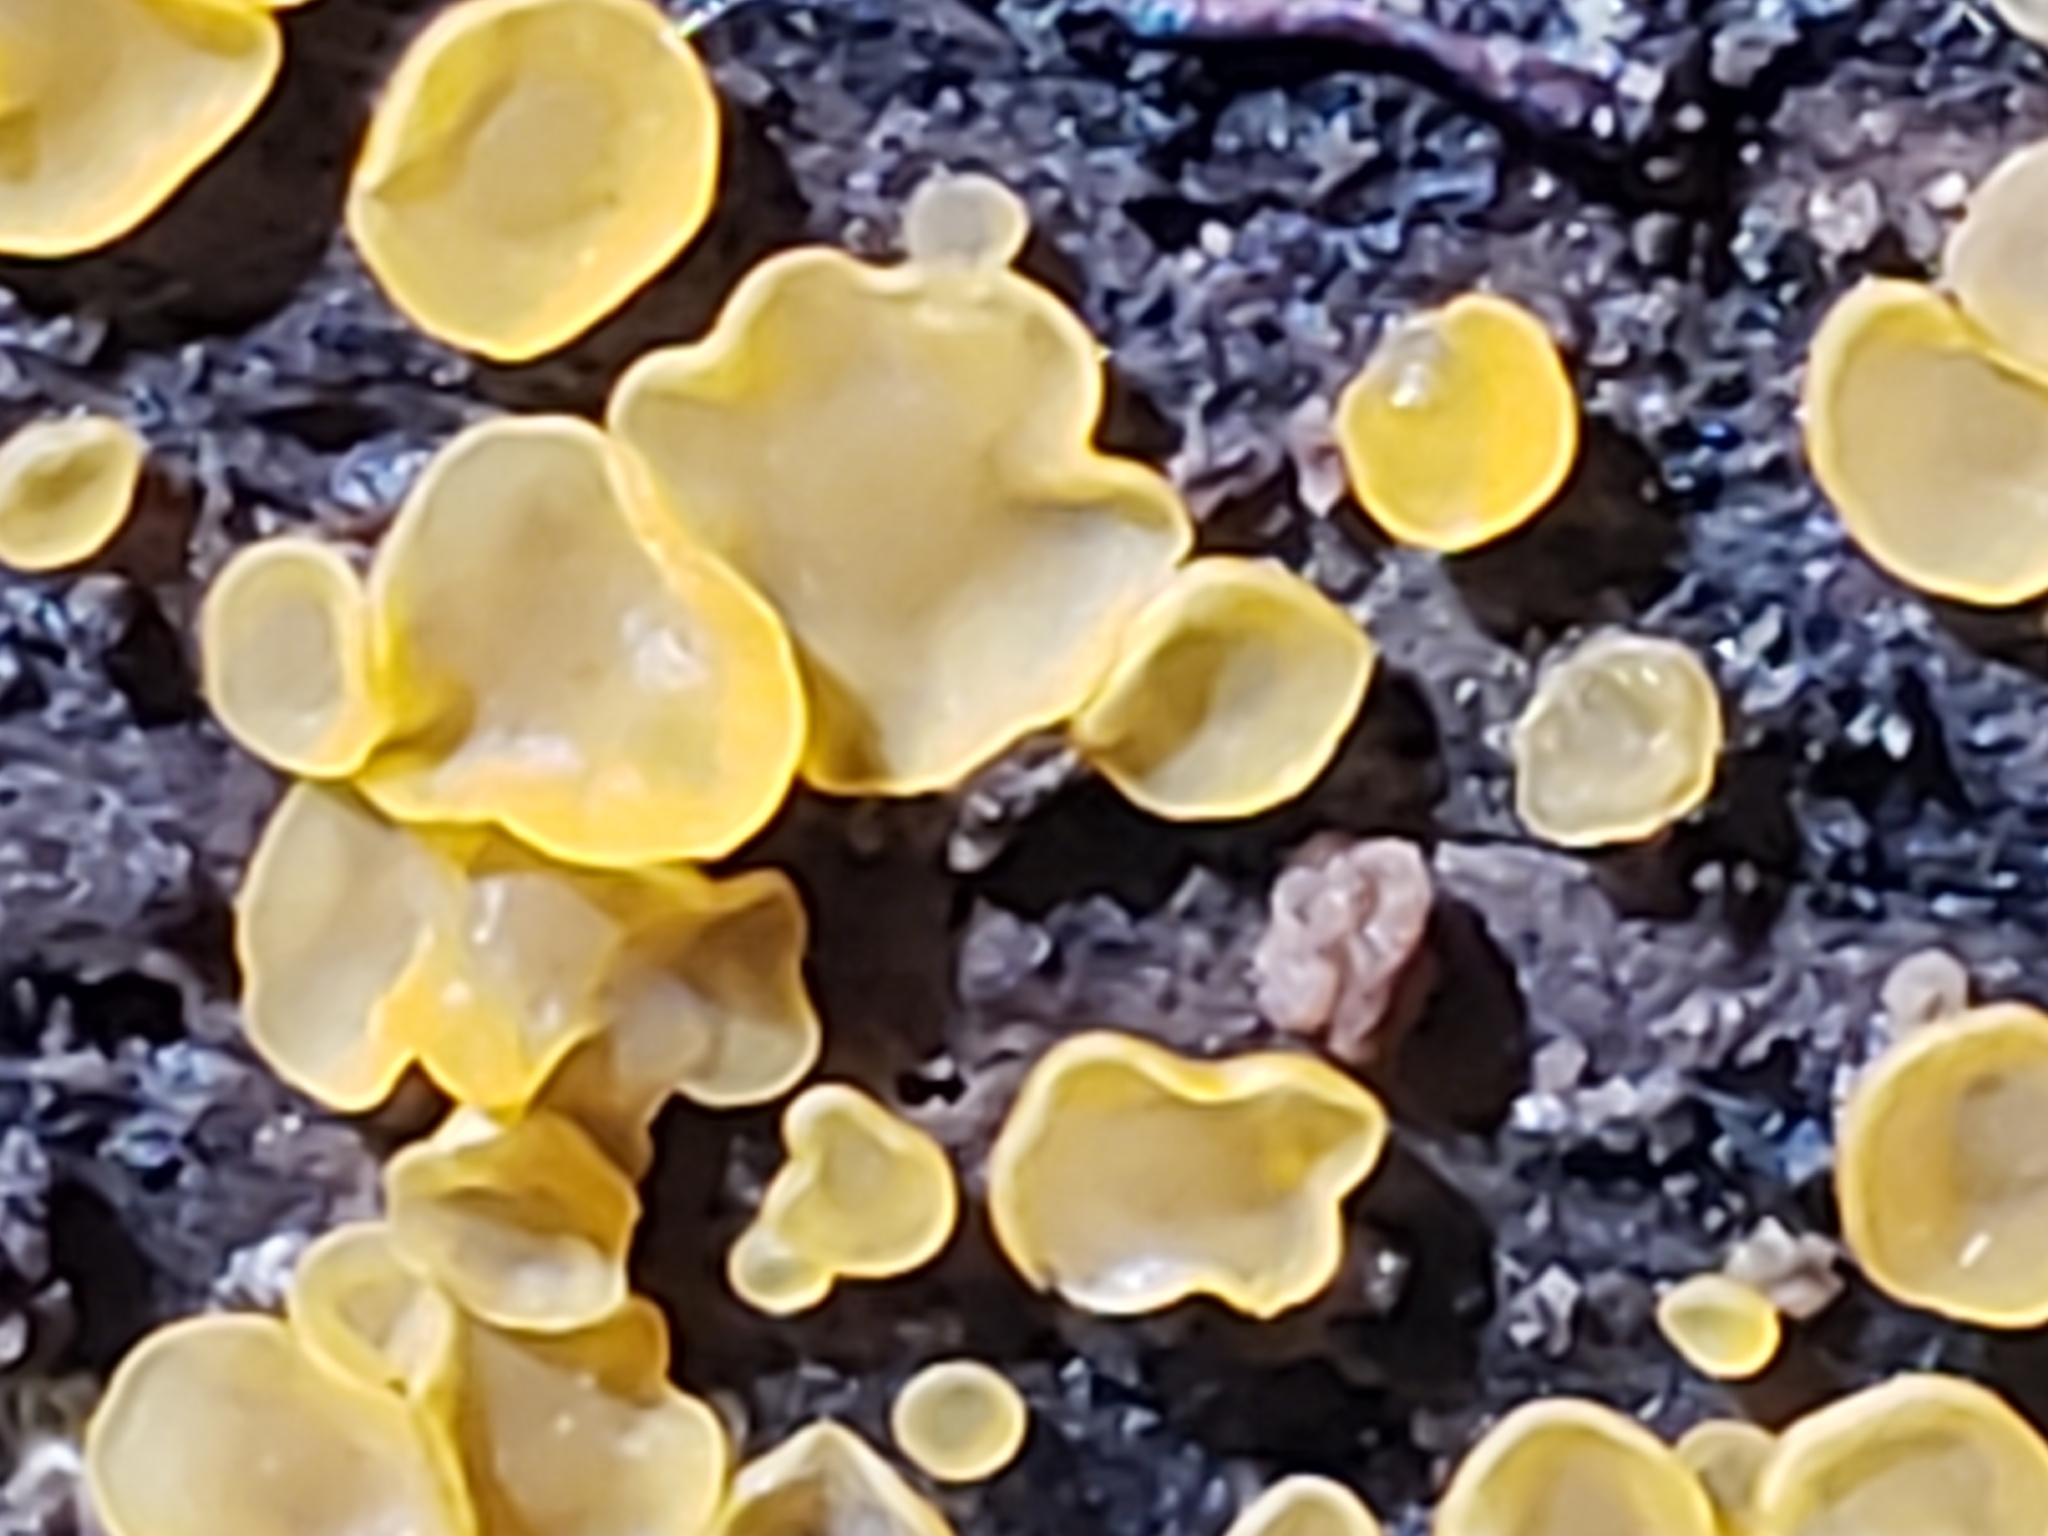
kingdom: Fungi
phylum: Ascomycota
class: Orbiliomycetes
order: Orbiliales
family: Orbiliaceae
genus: Orbilia
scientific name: Orbilia
